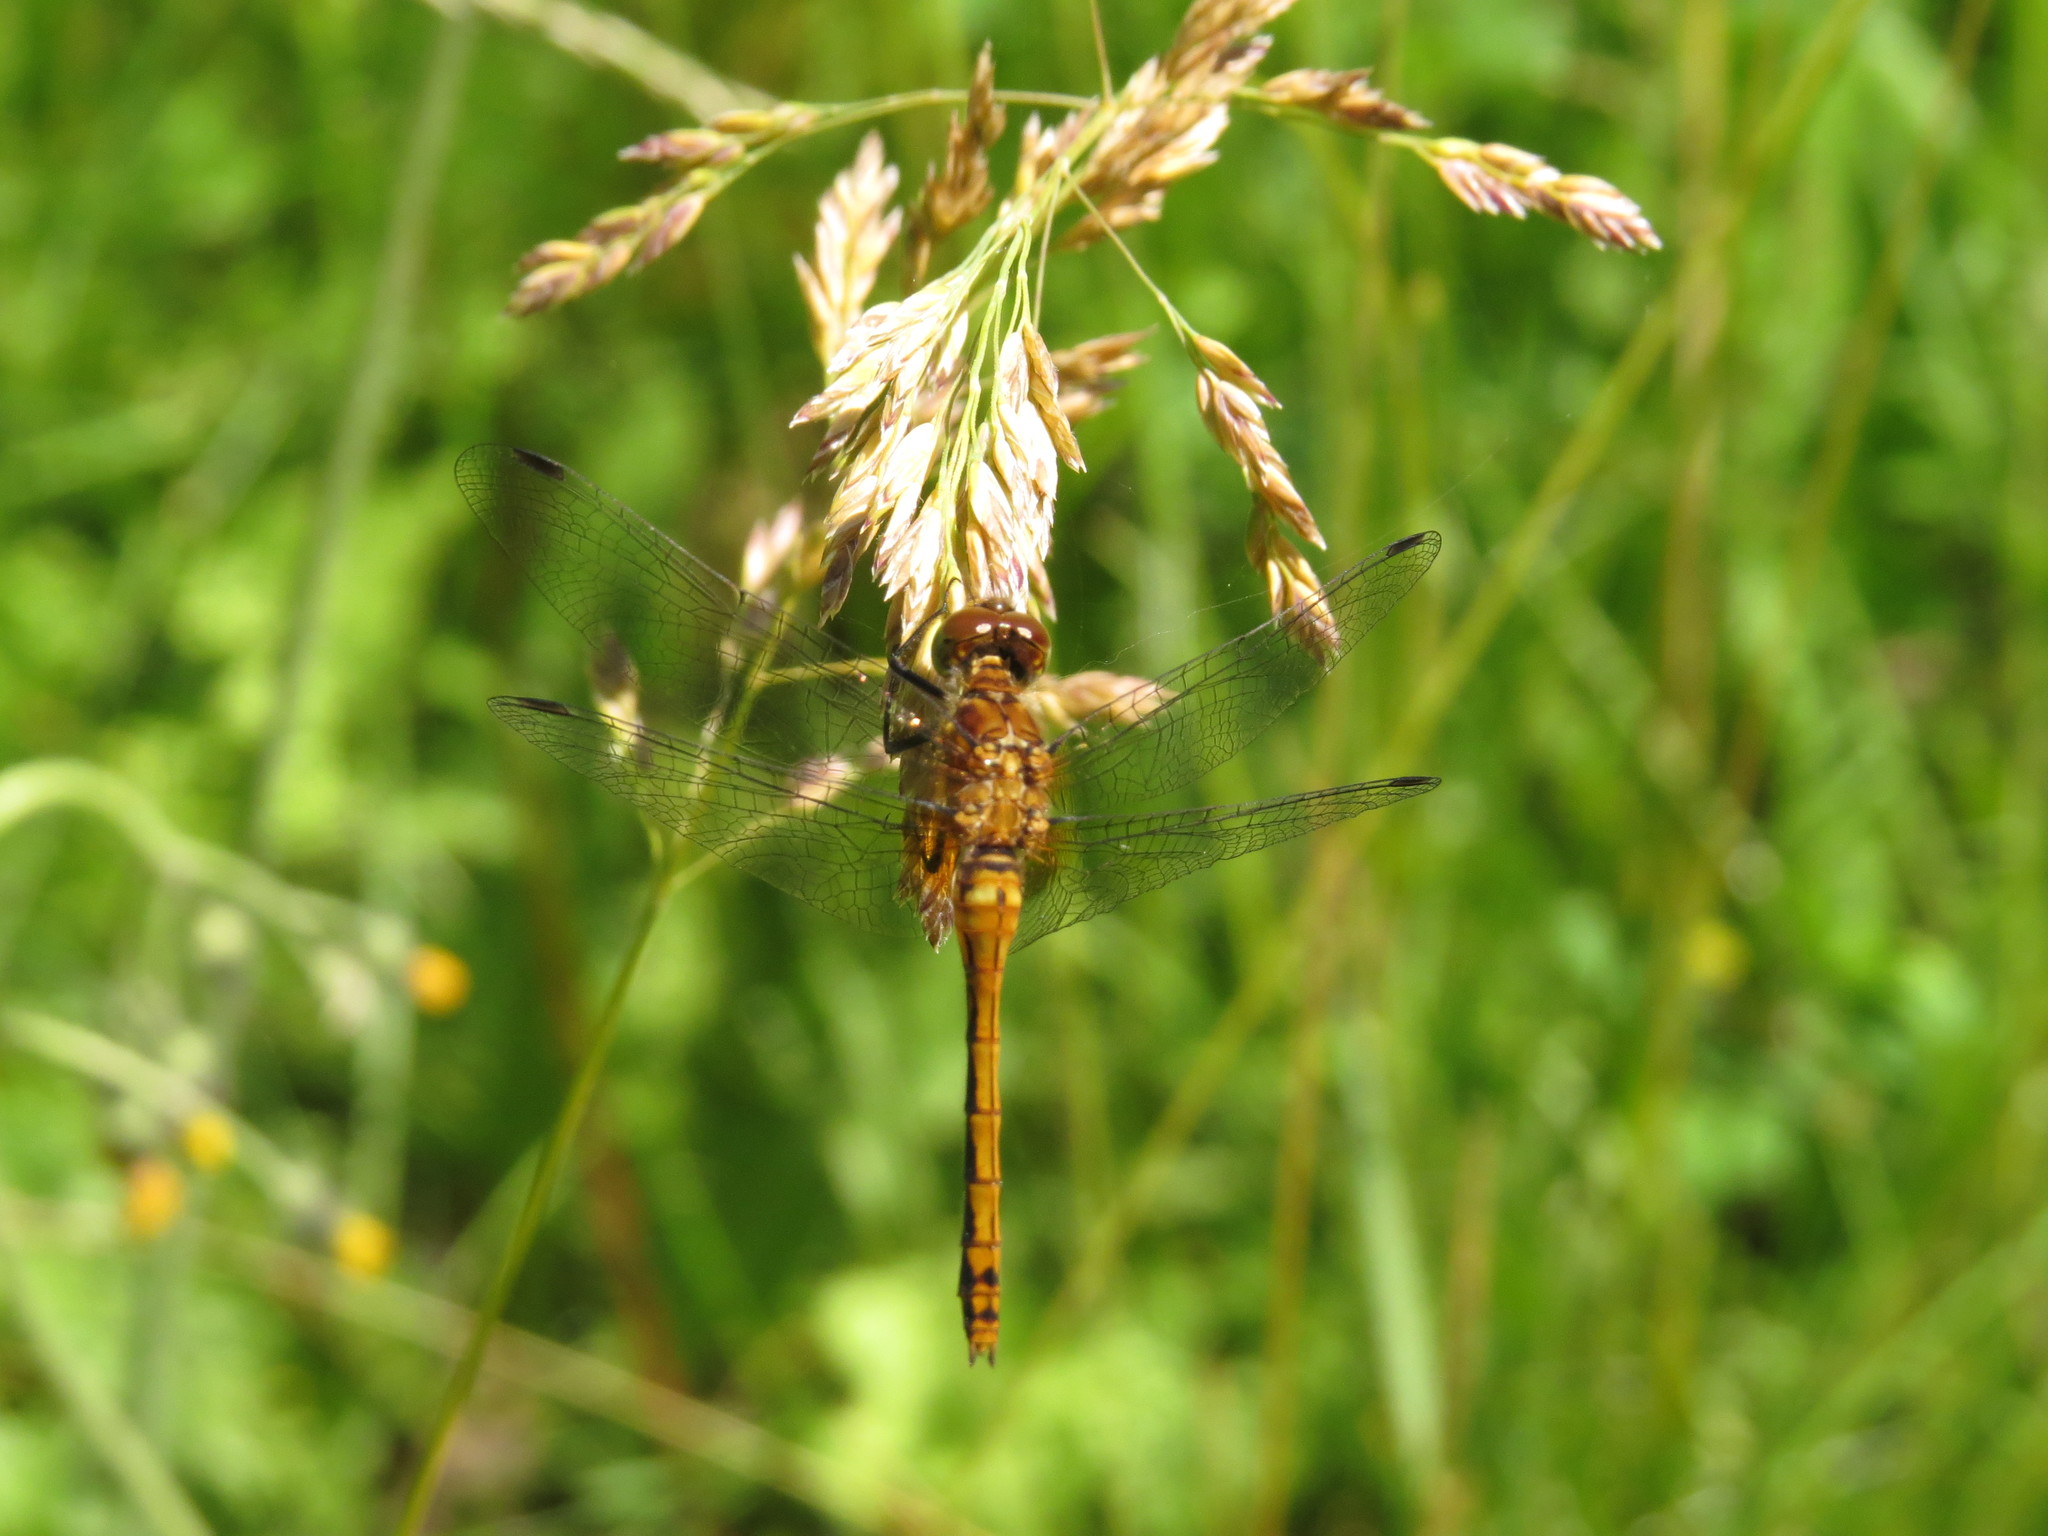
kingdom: Animalia
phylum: Arthropoda
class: Insecta
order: Odonata
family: Libellulidae
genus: Sympetrum
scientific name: Sympetrum
